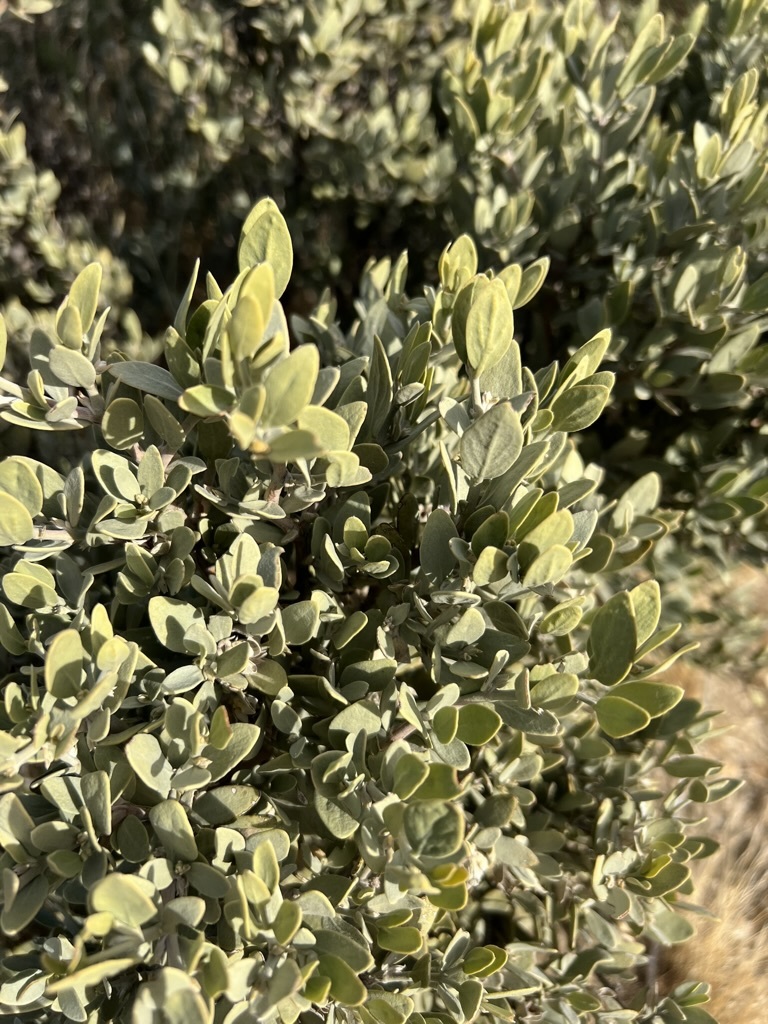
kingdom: Plantae
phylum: Tracheophyta
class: Magnoliopsida
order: Caryophyllales
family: Simmondsiaceae
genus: Simmondsia
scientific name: Simmondsia chinensis
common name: Jojoba
